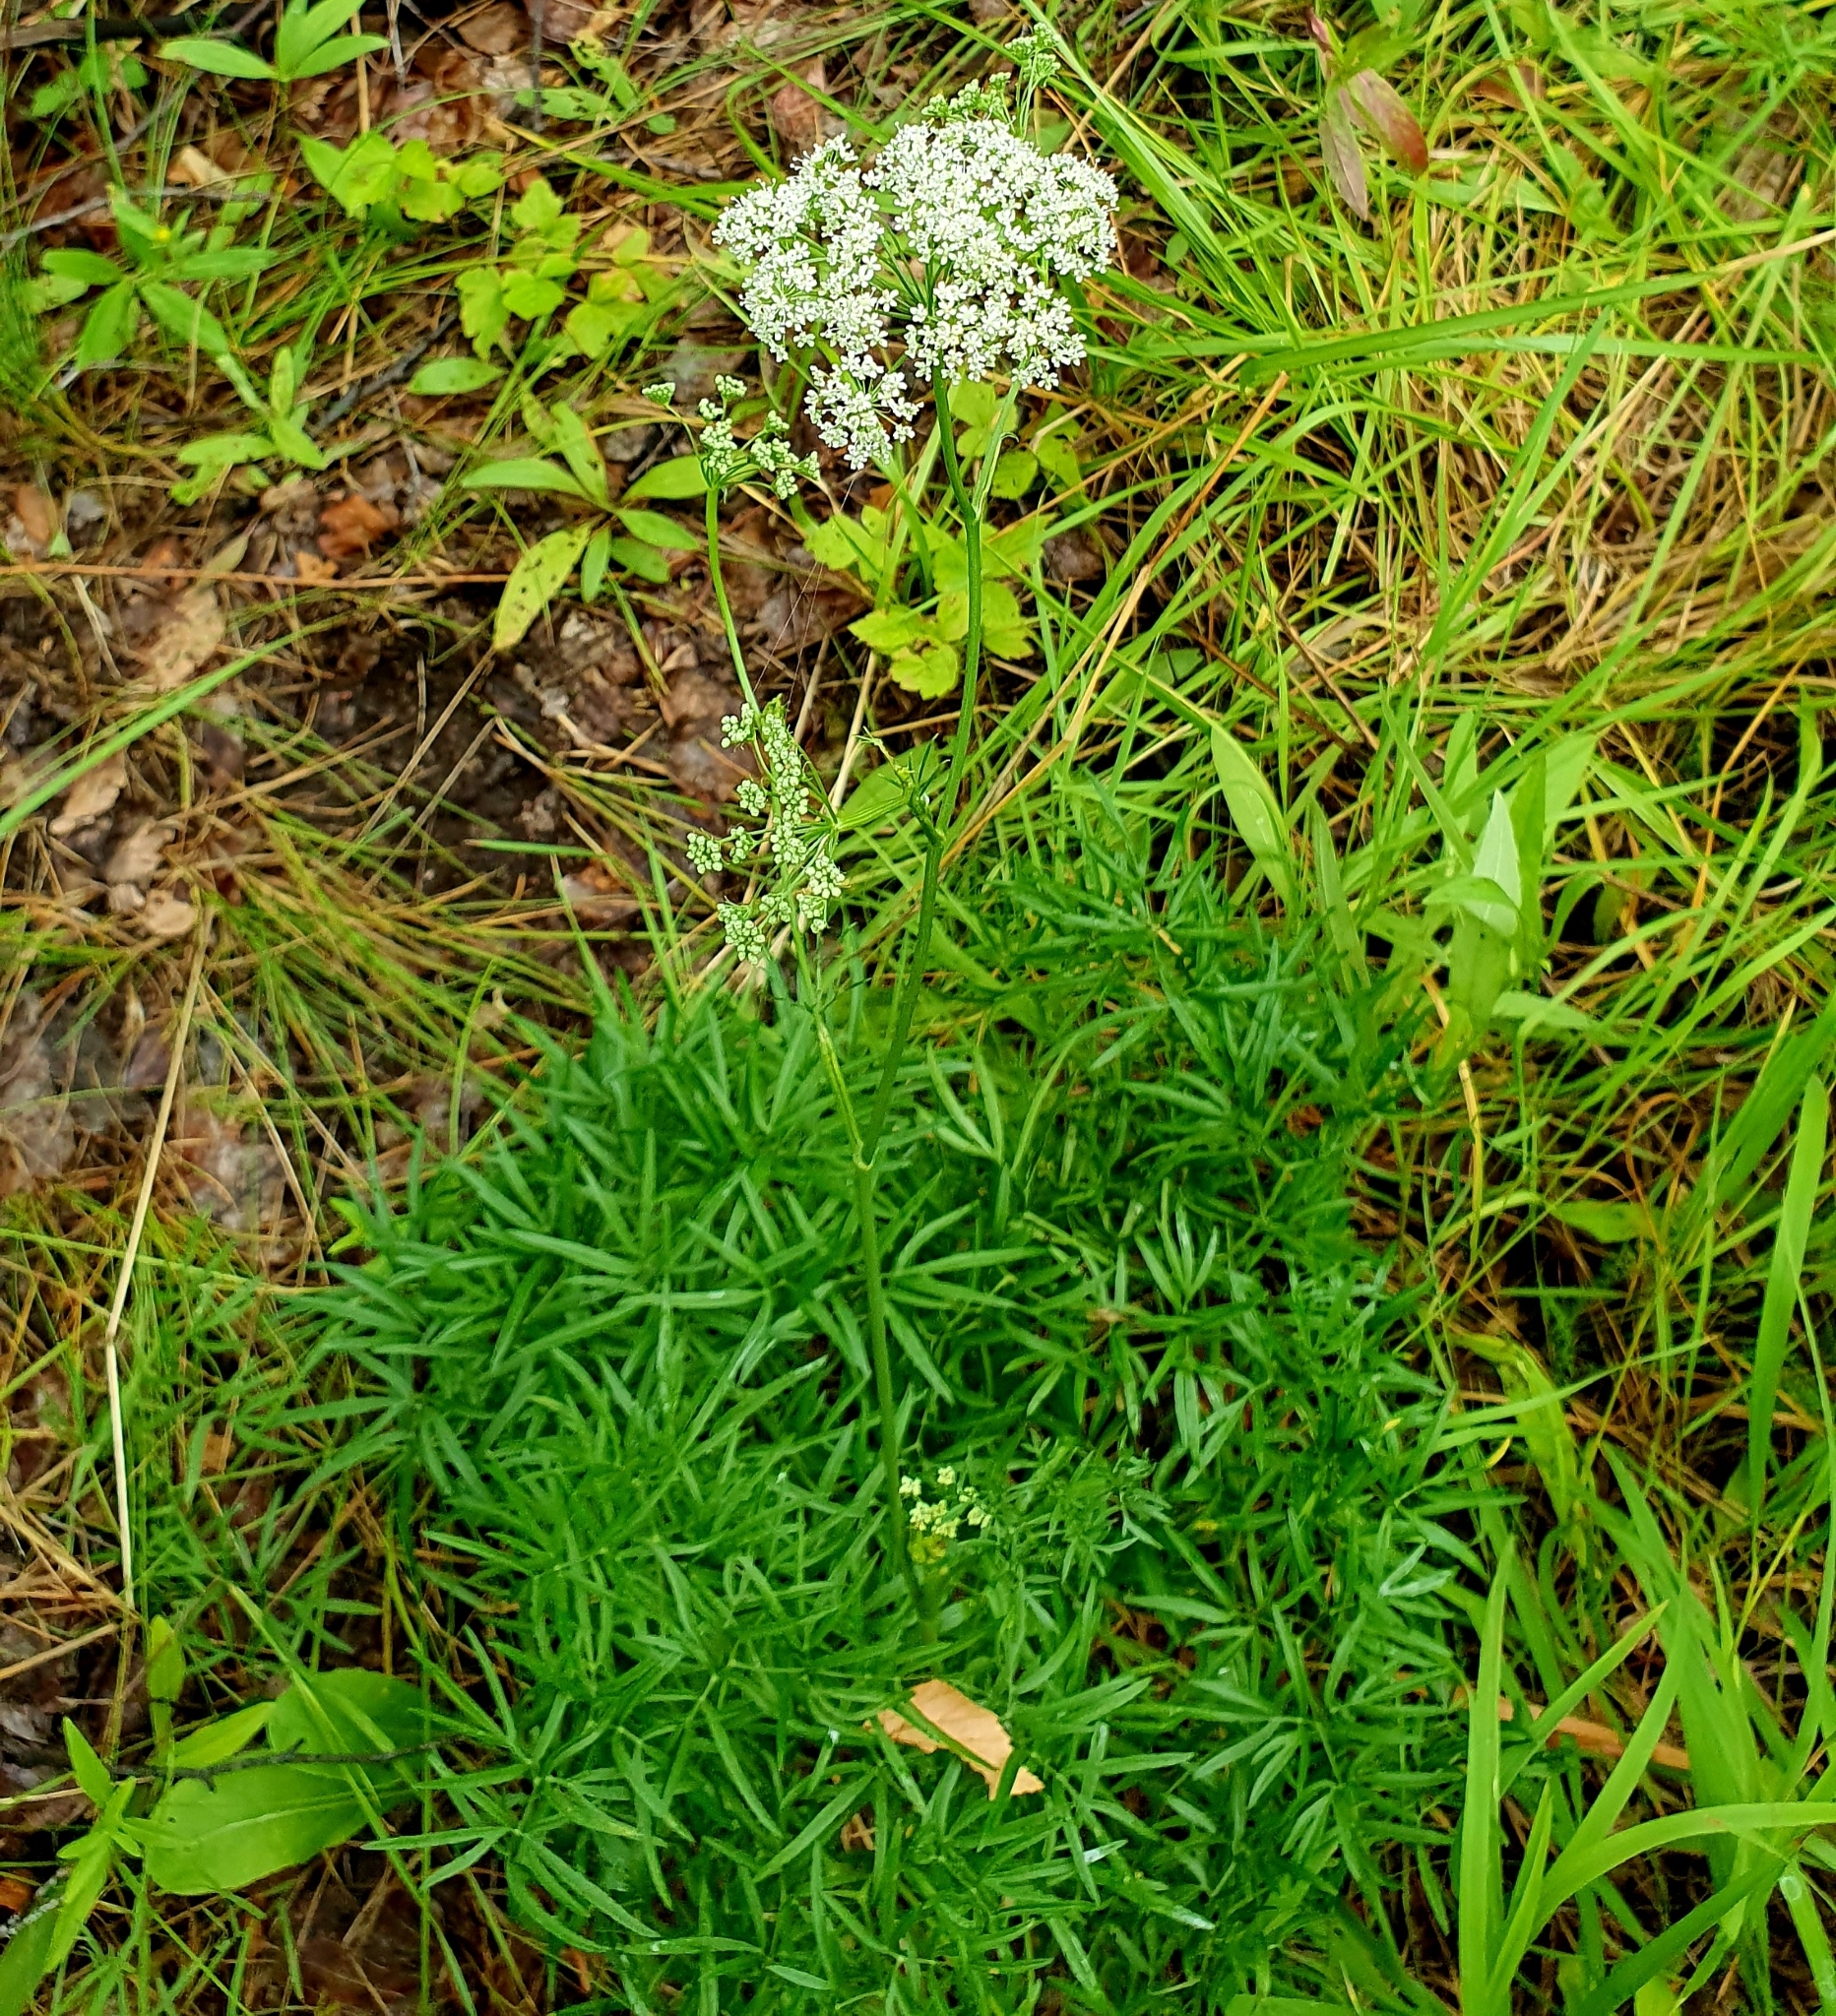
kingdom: Plantae
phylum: Tracheophyta
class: Magnoliopsida
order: Apiales
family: Apiaceae
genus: Cenolophium
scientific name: Cenolophium fischeri
